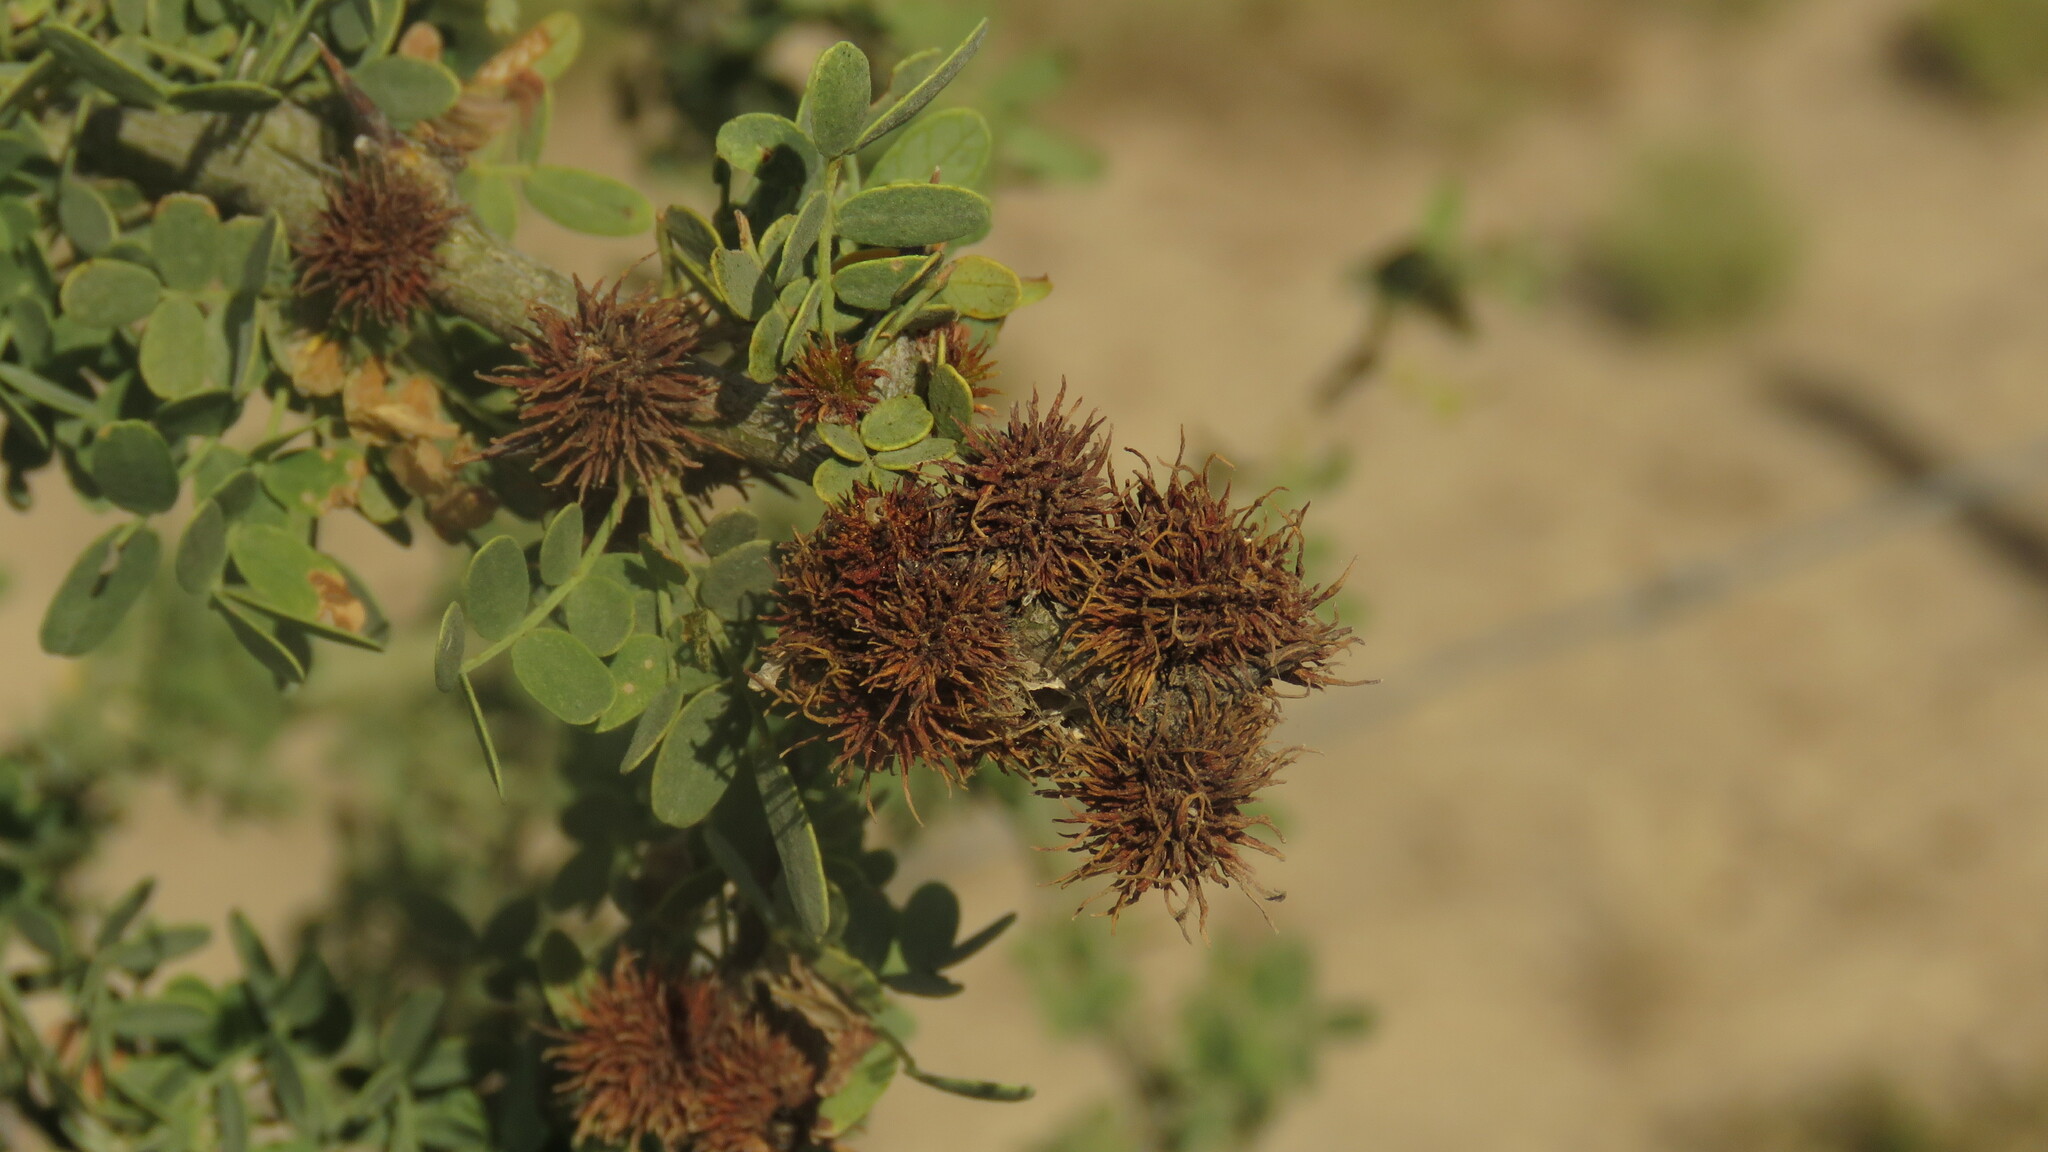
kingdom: Plantae
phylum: Tracheophyta
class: Magnoliopsida
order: Fabales
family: Fabaceae
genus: Geoffroea
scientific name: Geoffroea decorticans
